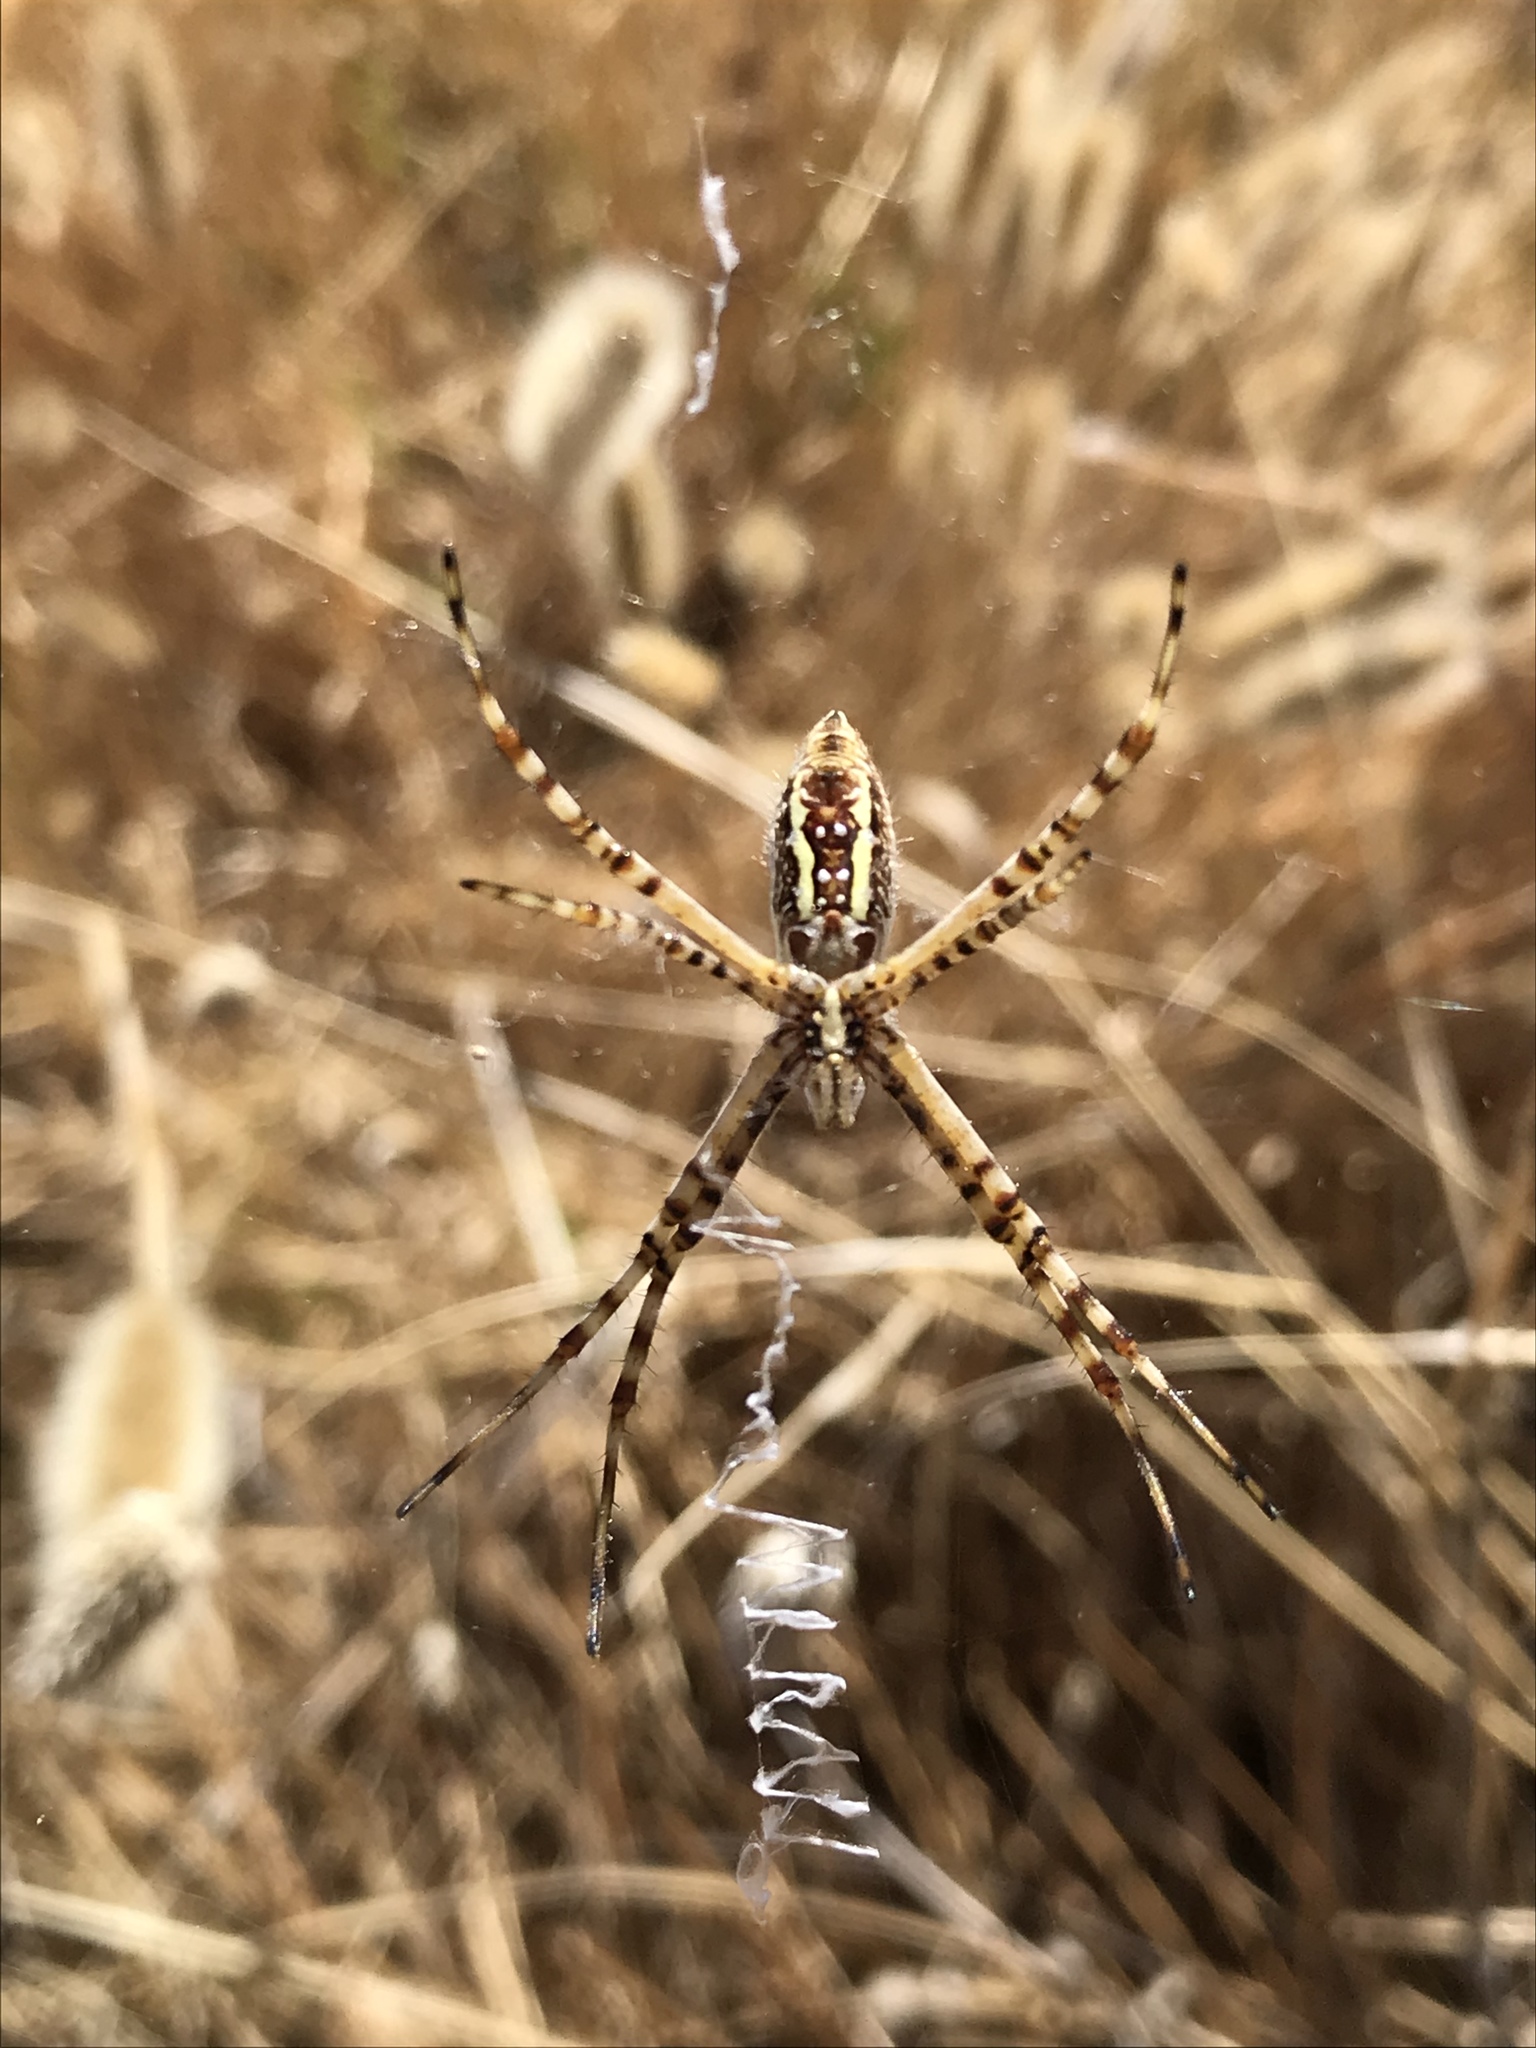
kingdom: Animalia
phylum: Arthropoda
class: Arachnida
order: Araneae
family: Araneidae
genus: Argiope
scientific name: Argiope trifasciata
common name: Banded garden spider
